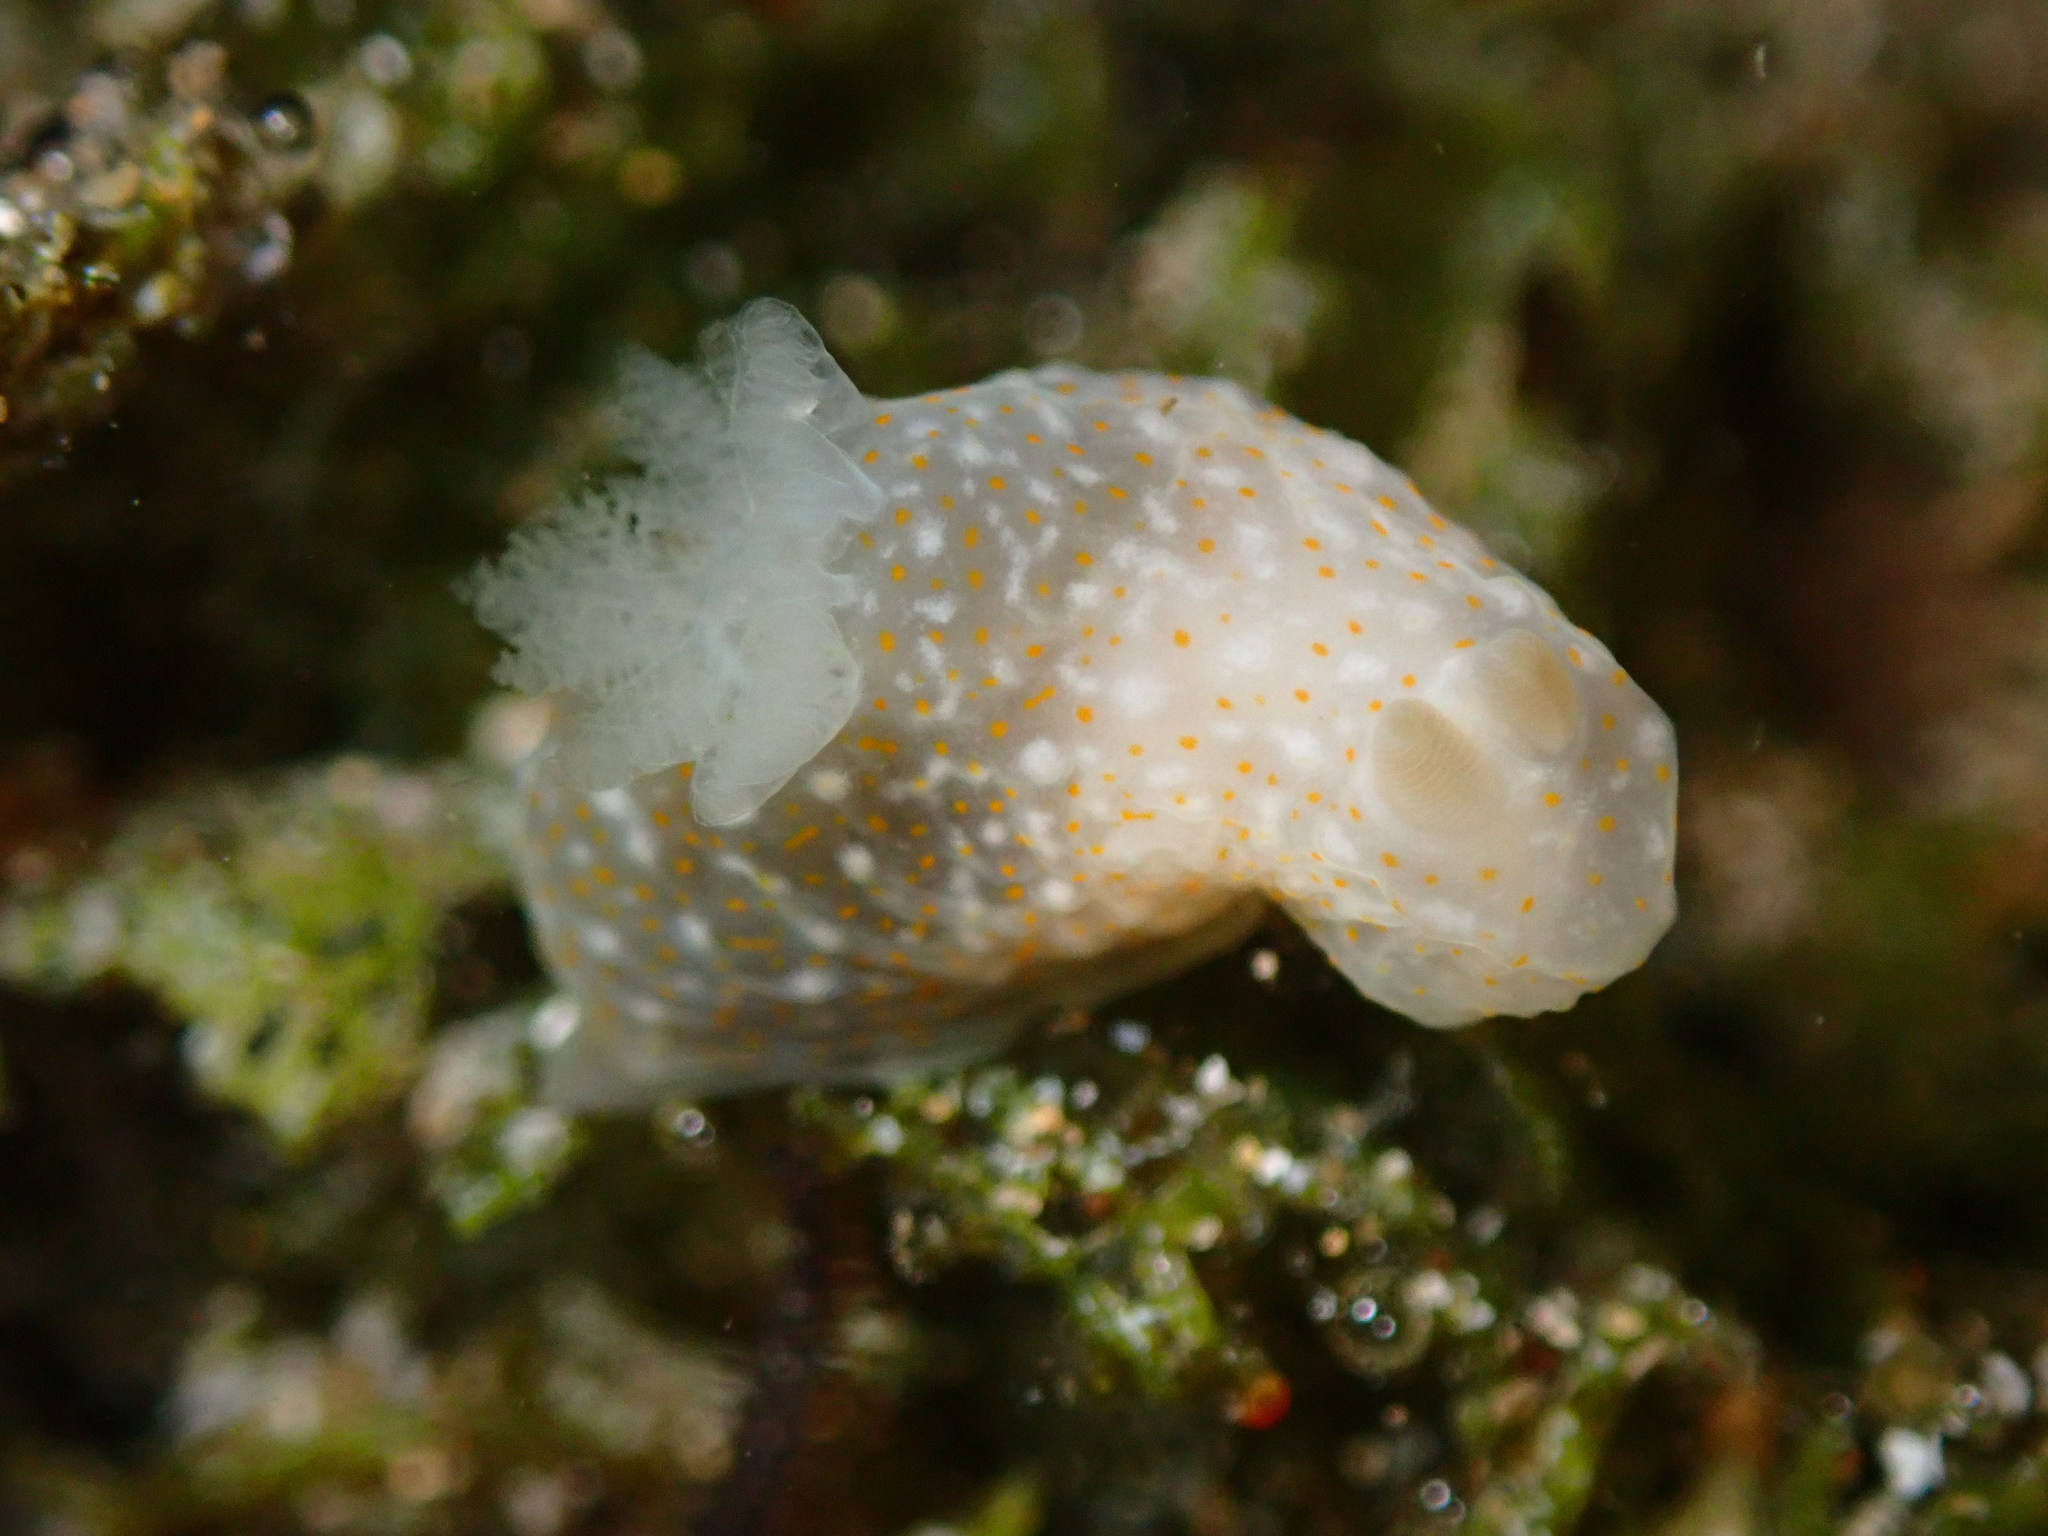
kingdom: Animalia
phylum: Mollusca
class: Gastropoda
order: Nudibranchia
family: Polyceridae
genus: Gymnodoris
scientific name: Gymnodoris okinawae
